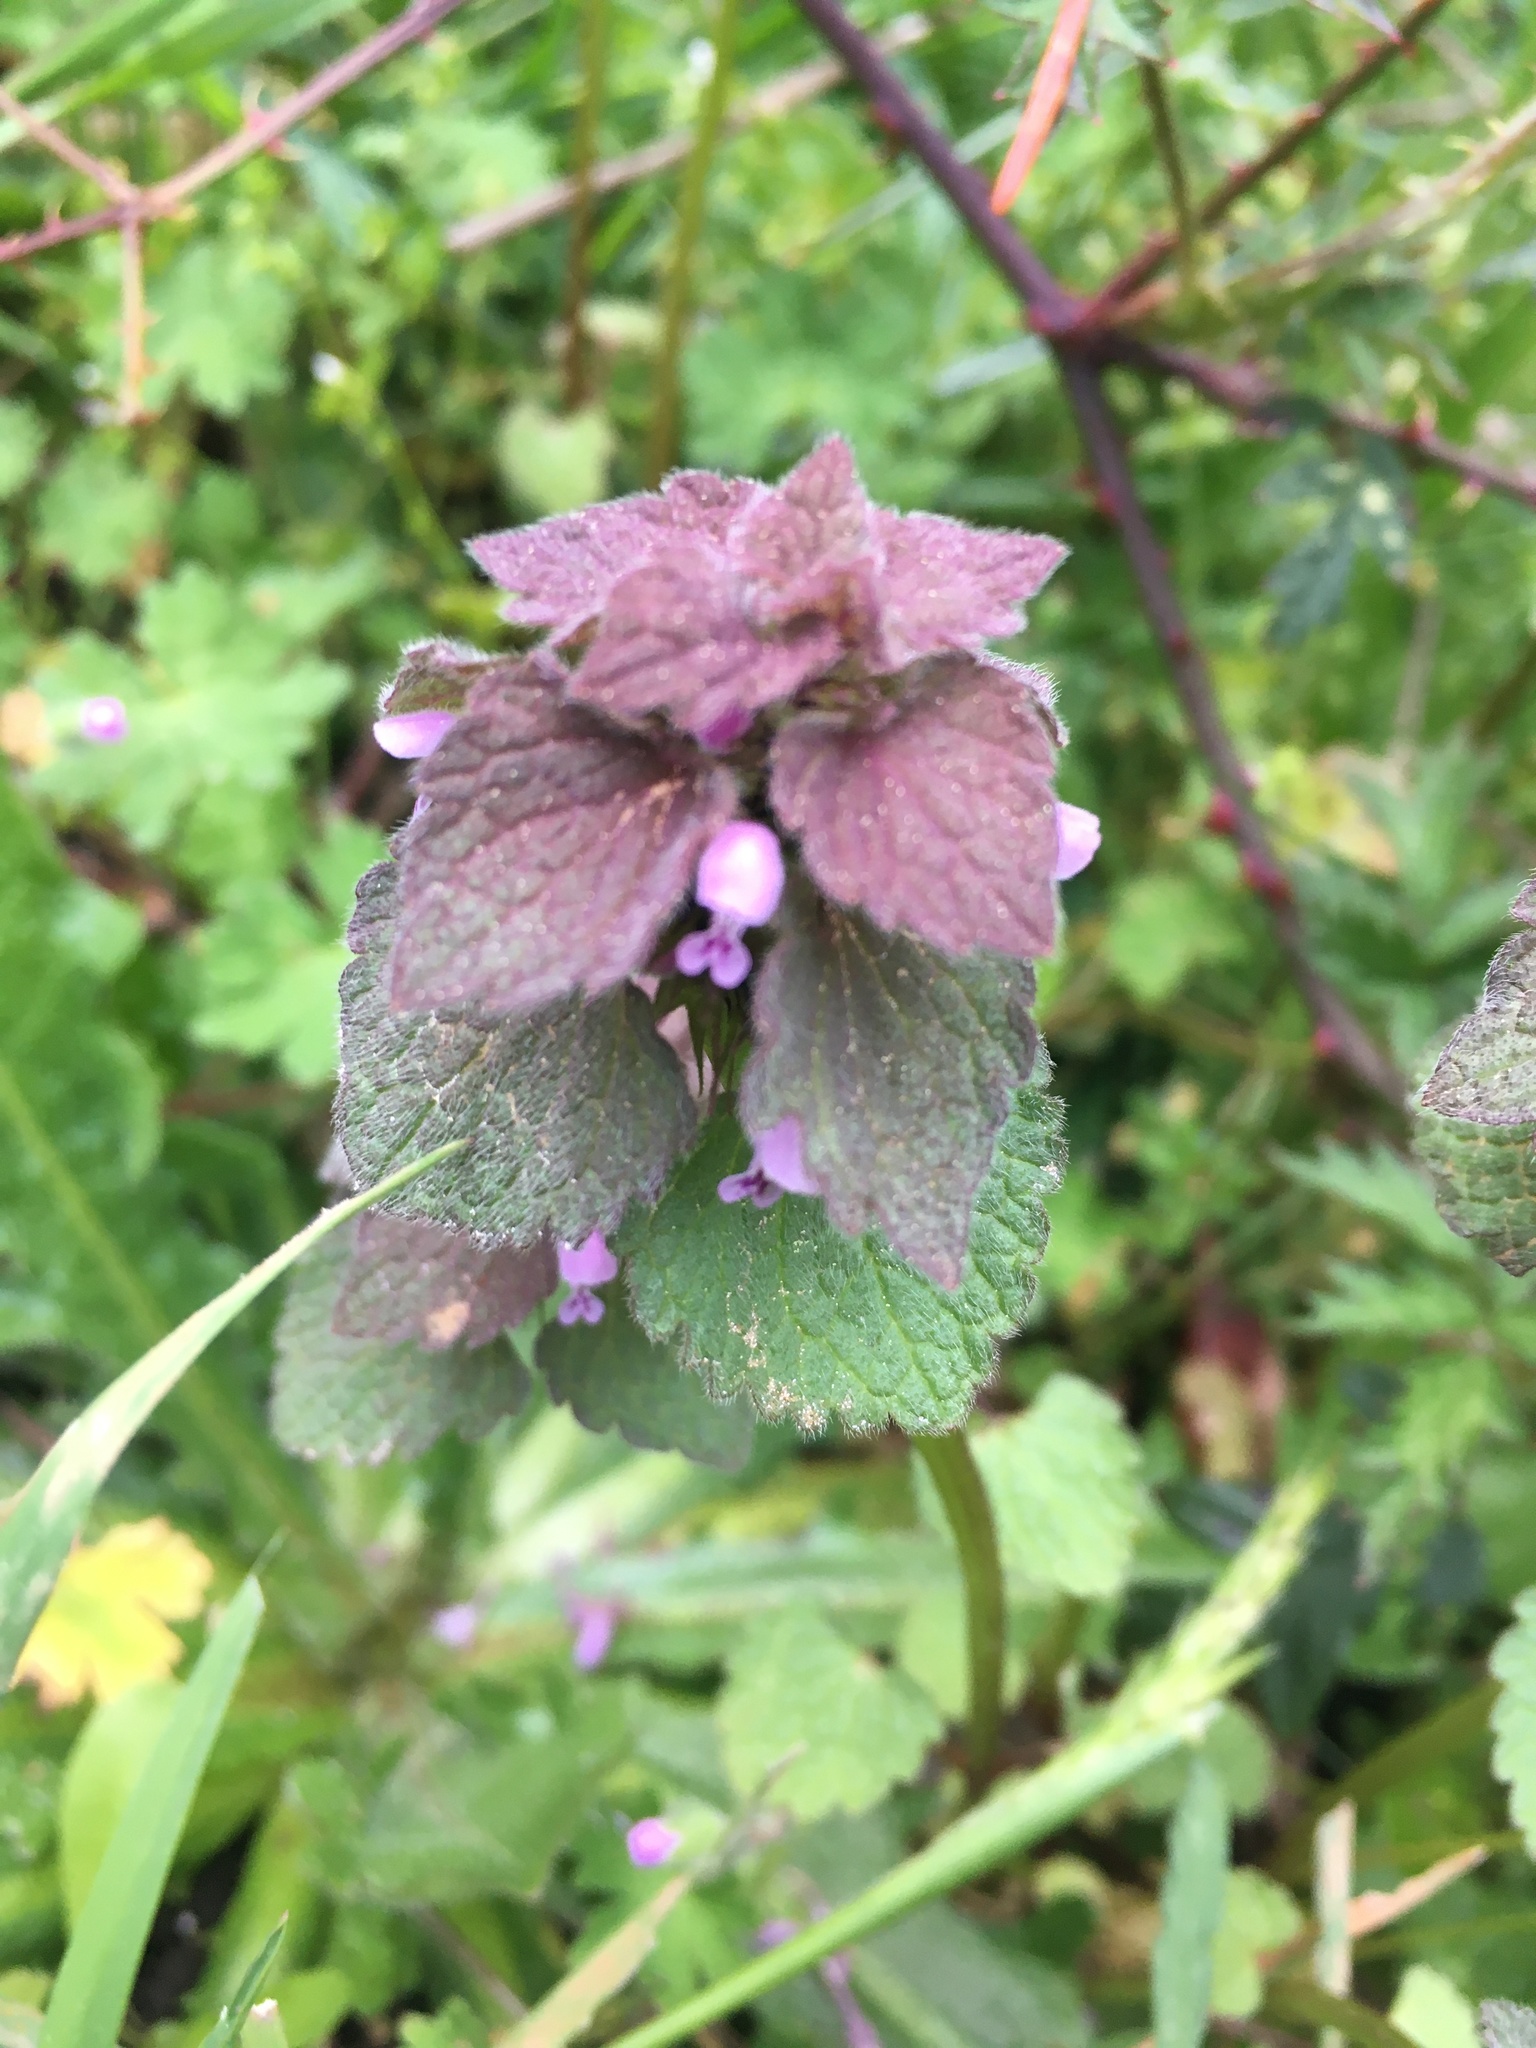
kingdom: Plantae
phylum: Tracheophyta
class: Magnoliopsida
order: Lamiales
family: Lamiaceae
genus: Lamium
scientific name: Lamium purpureum
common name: Red dead-nettle
